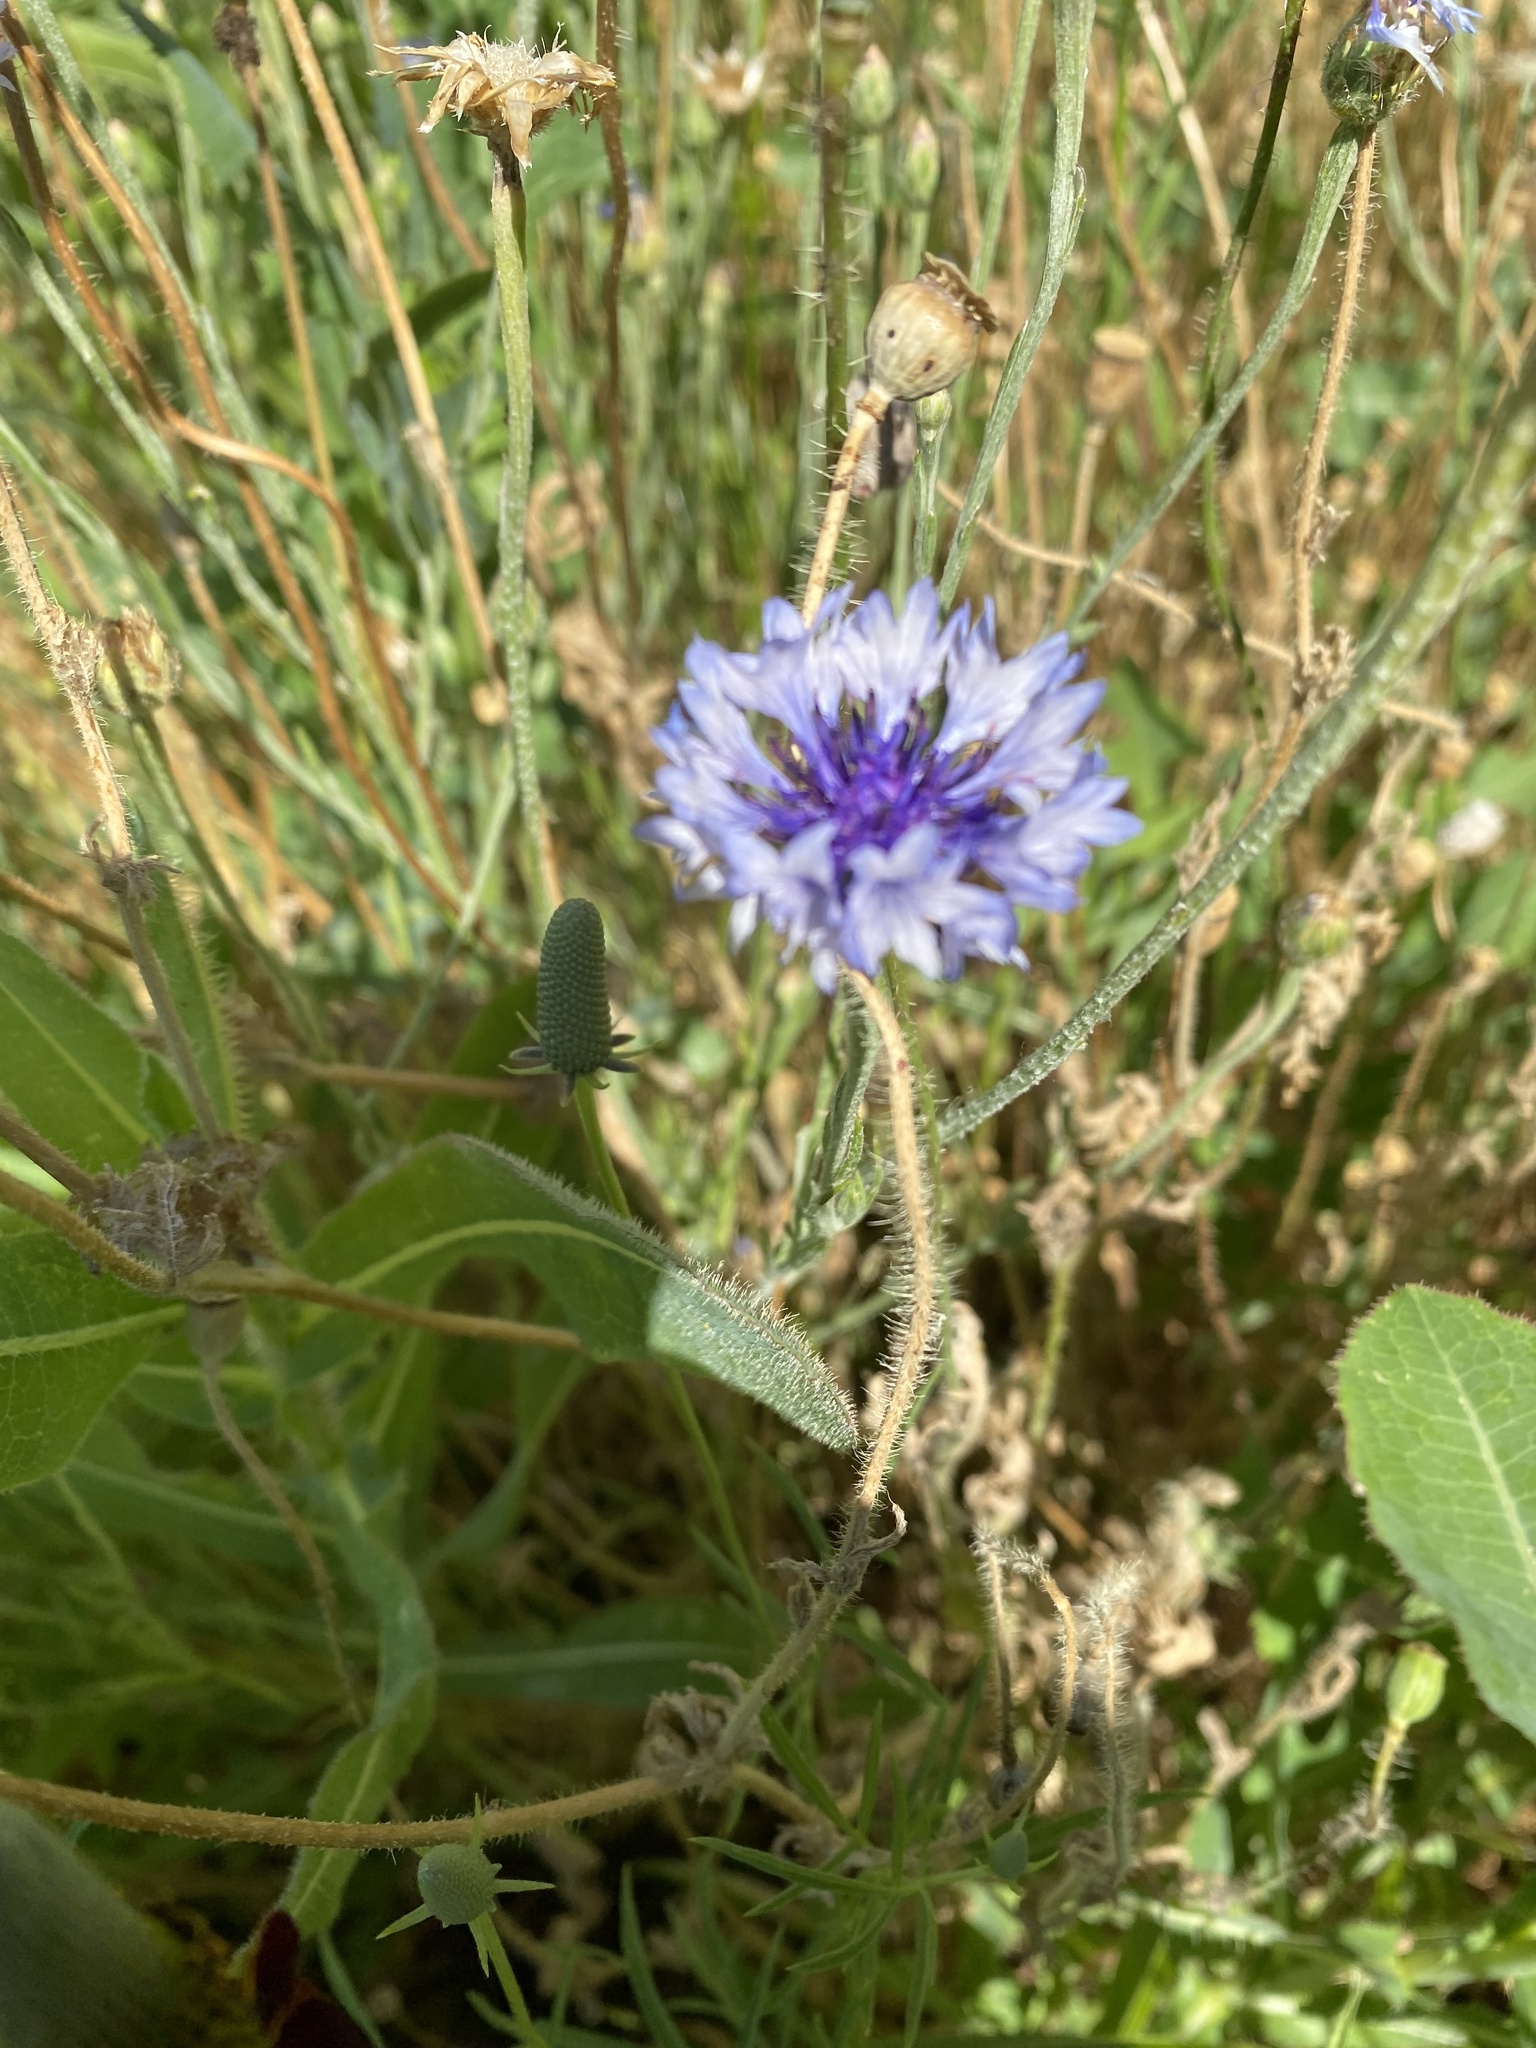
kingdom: Plantae
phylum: Tracheophyta
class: Magnoliopsida
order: Asterales
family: Asteraceae
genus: Centaurea
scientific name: Centaurea cyanus
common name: Cornflower
